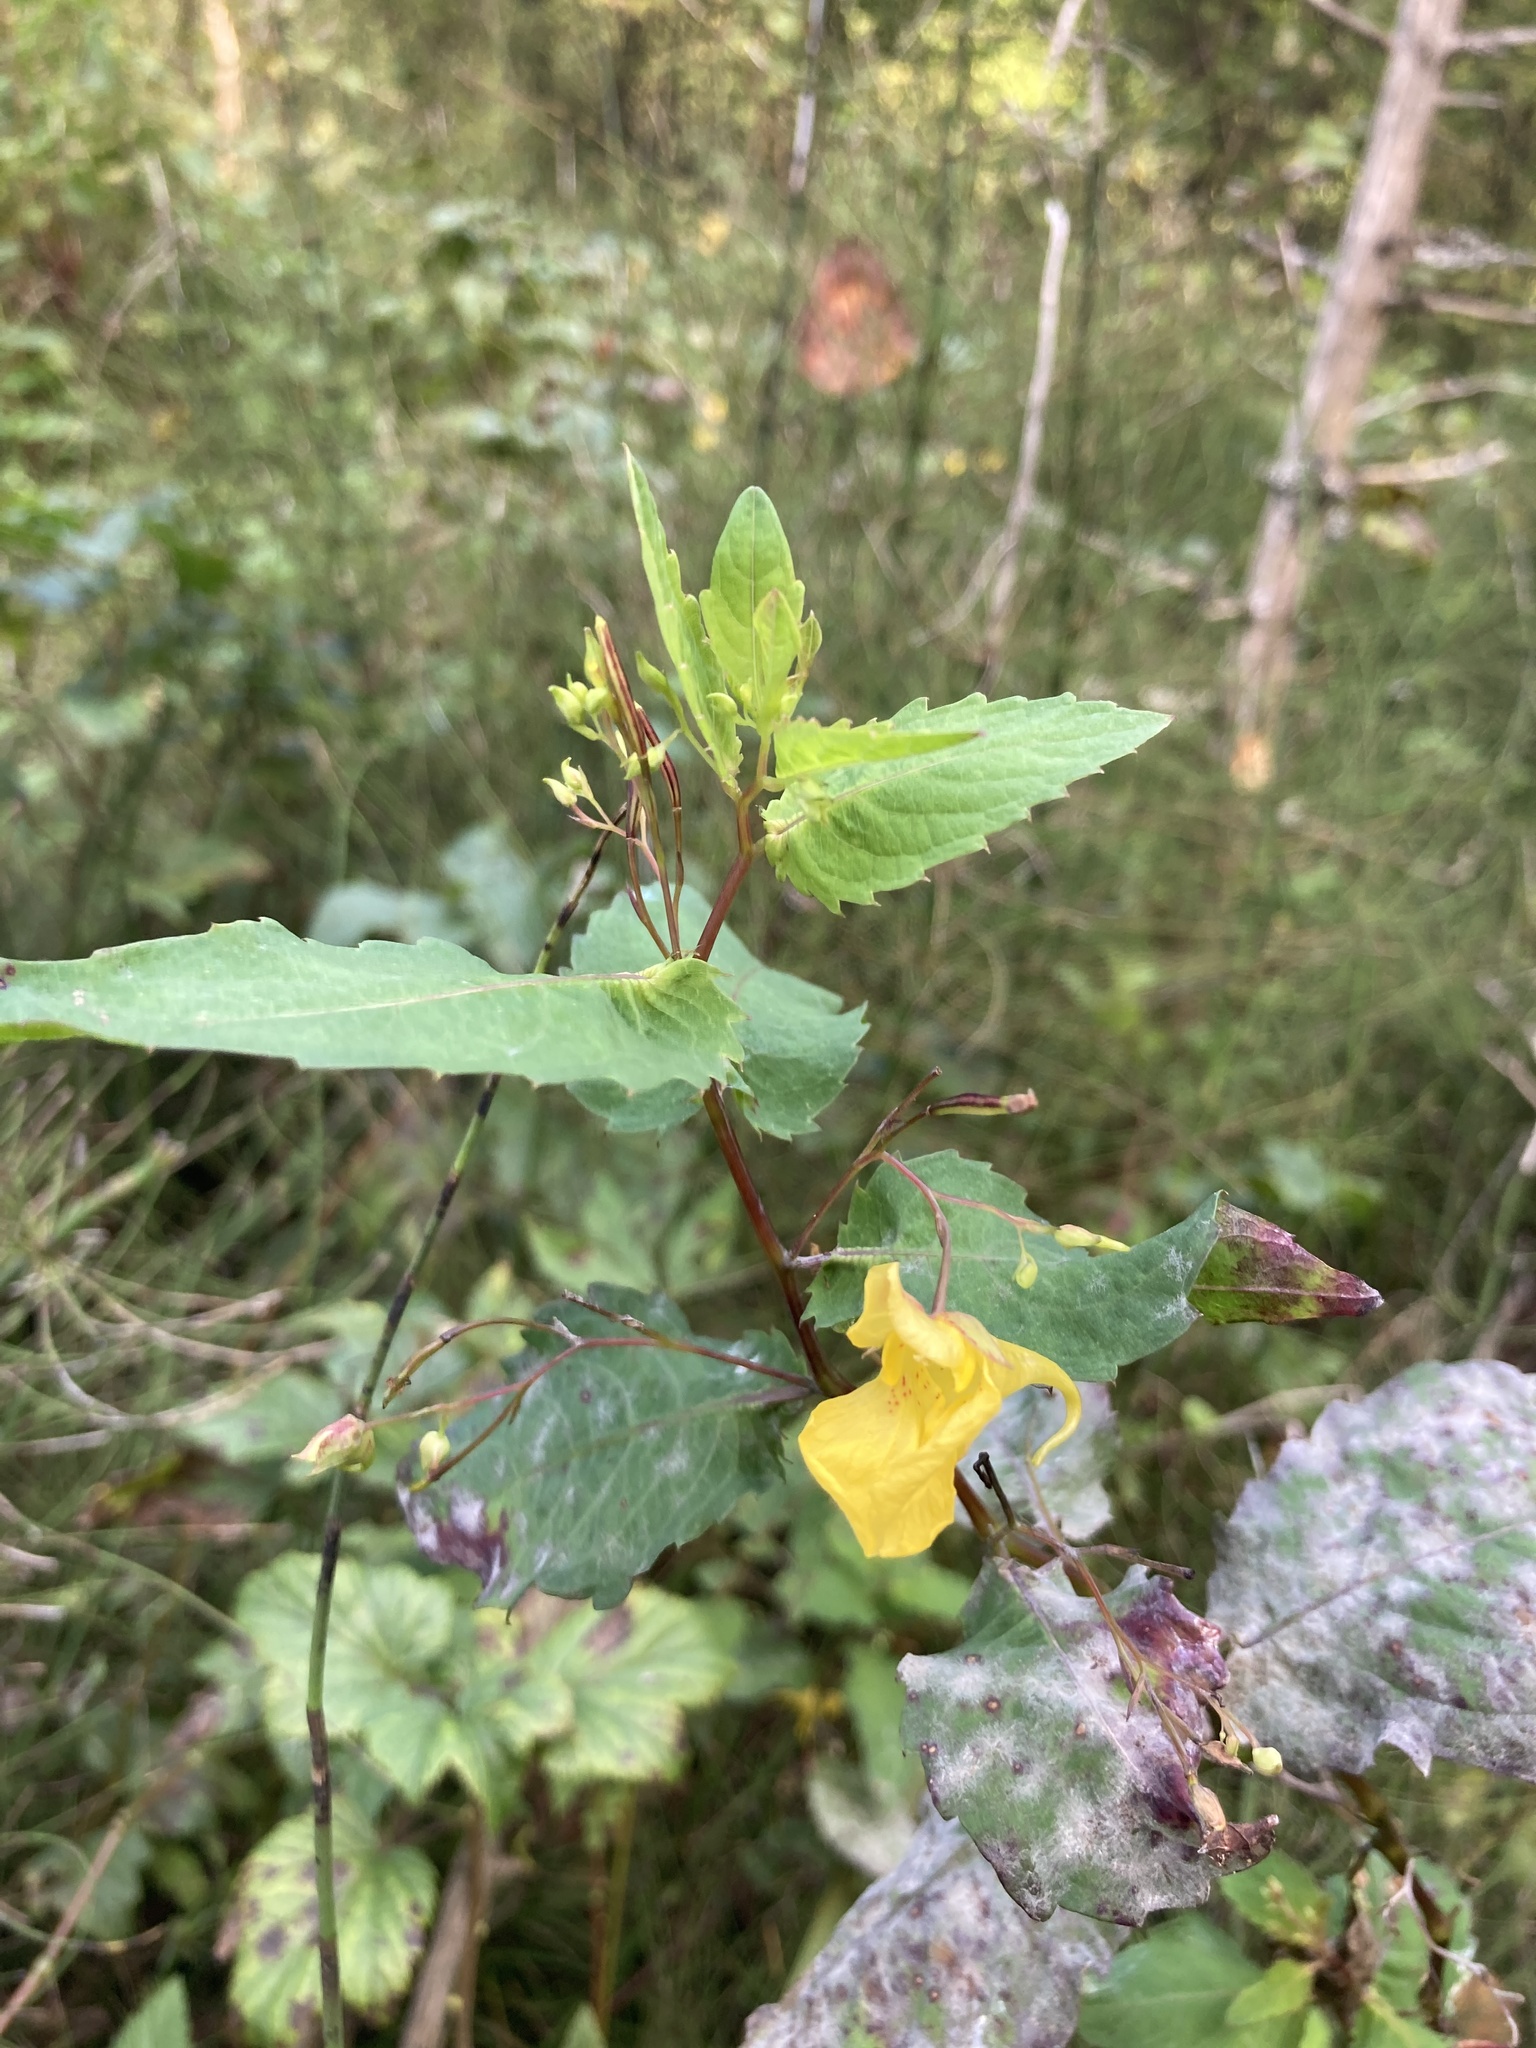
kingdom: Plantae
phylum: Tracheophyta
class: Magnoliopsida
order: Ericales
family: Balsaminaceae
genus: Impatiens
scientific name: Impatiens noli-tangere
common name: Touch-me-not balsam
